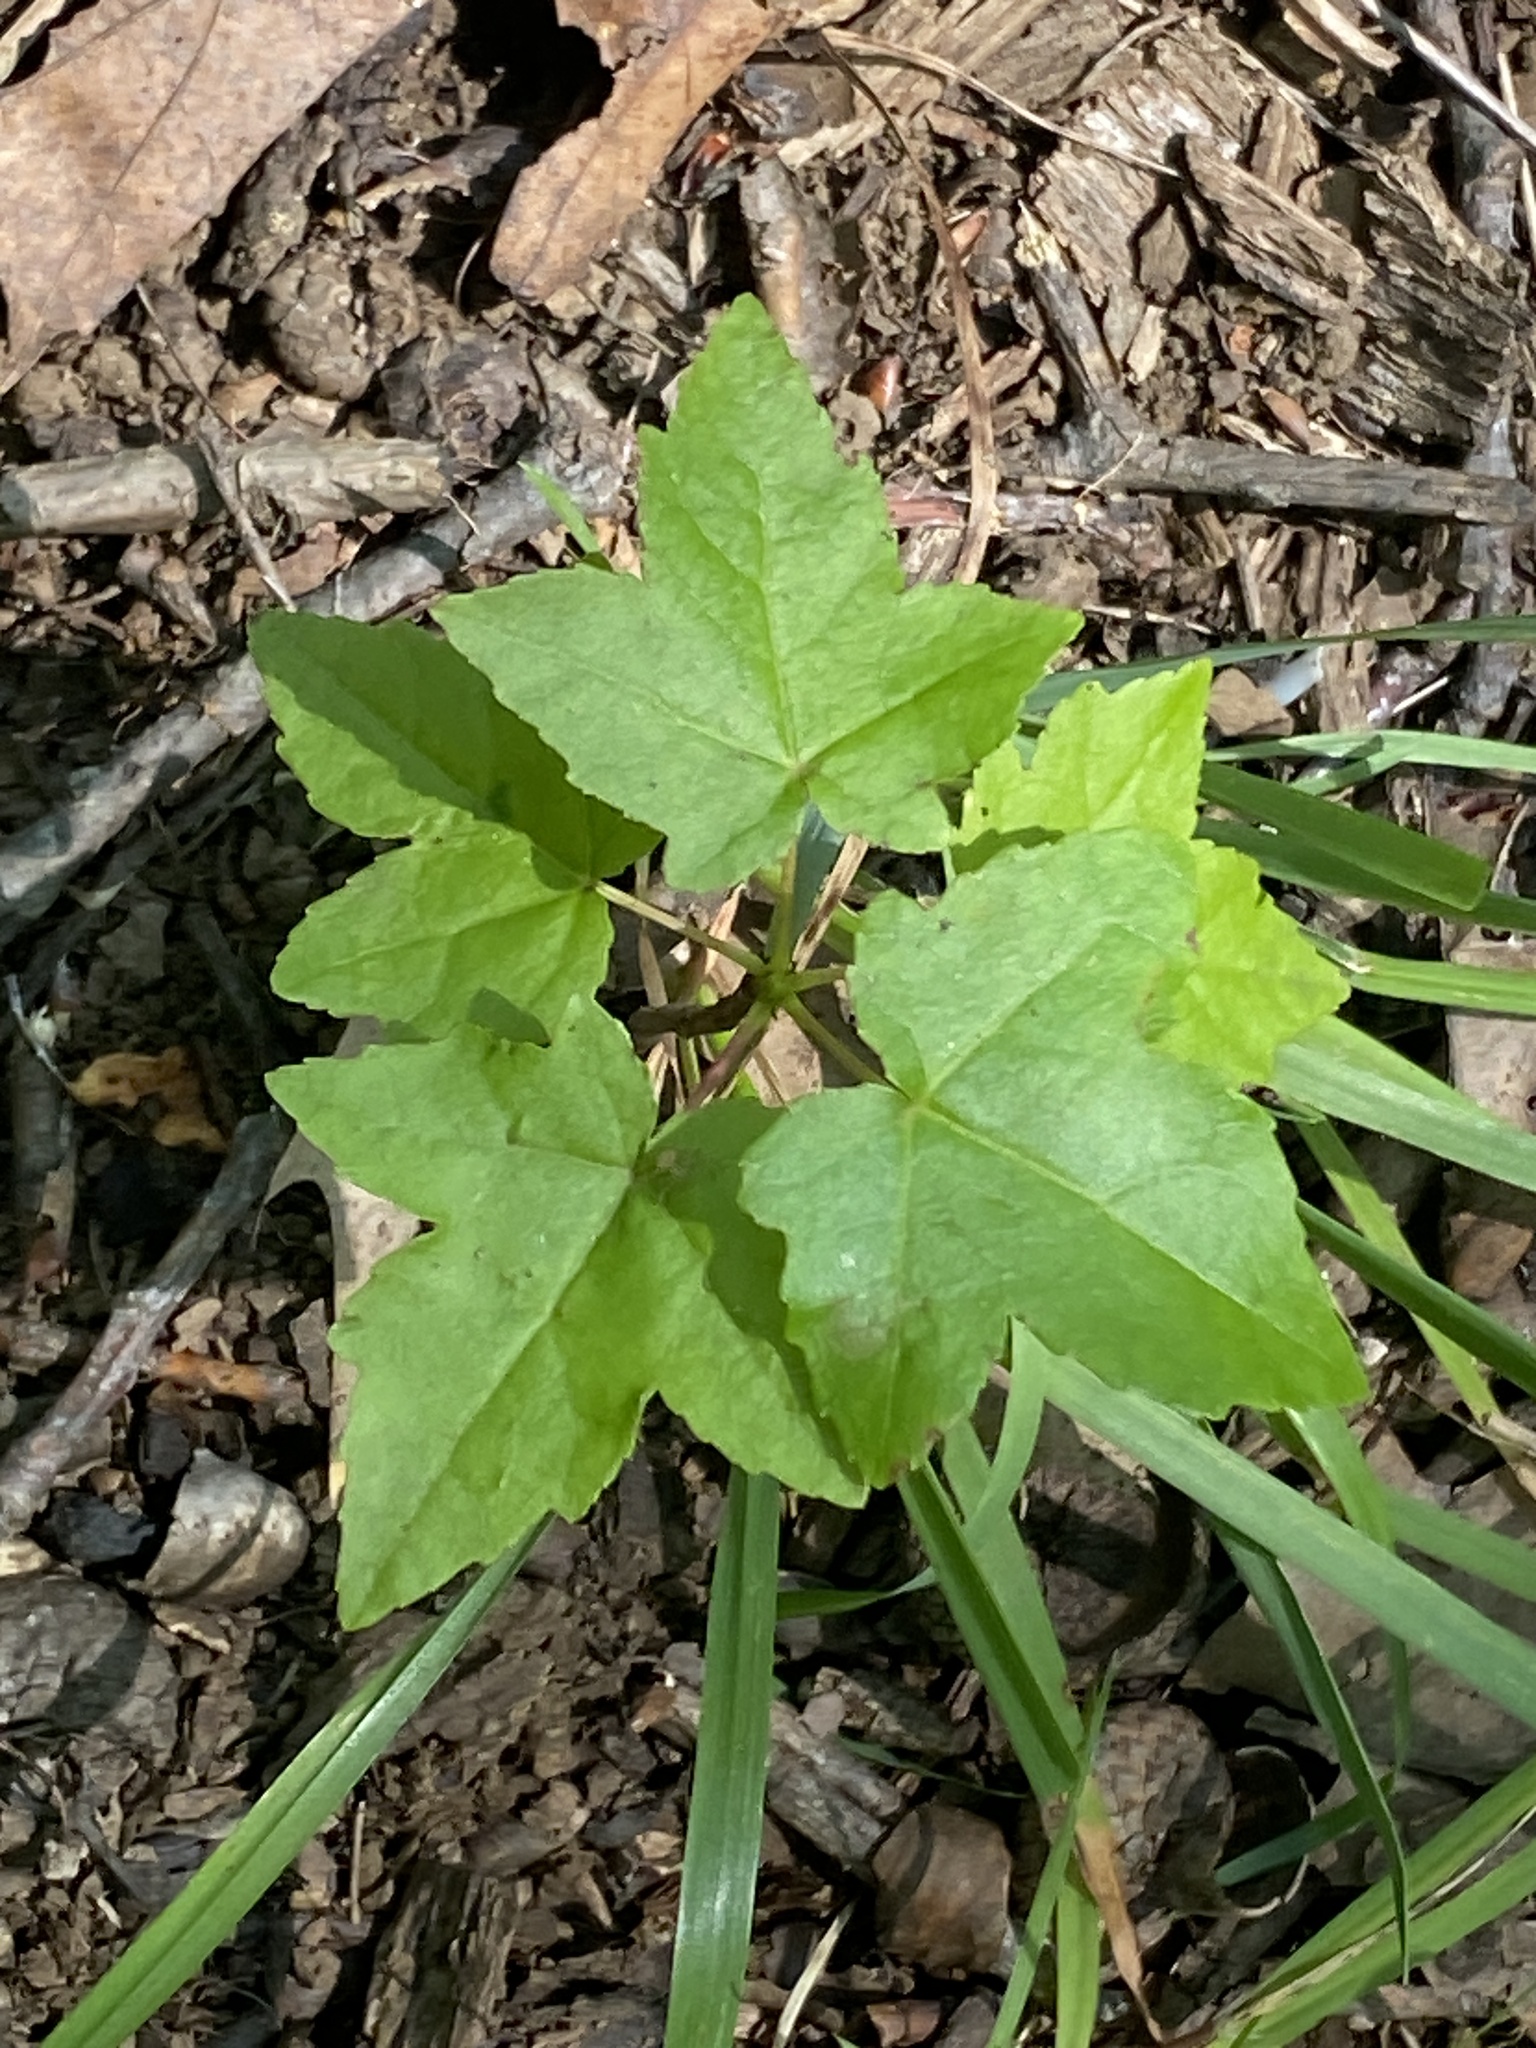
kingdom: Plantae
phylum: Tracheophyta
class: Magnoliopsida
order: Saxifragales
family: Altingiaceae
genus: Liquidambar
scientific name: Liquidambar styraciflua
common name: Sweet gum
